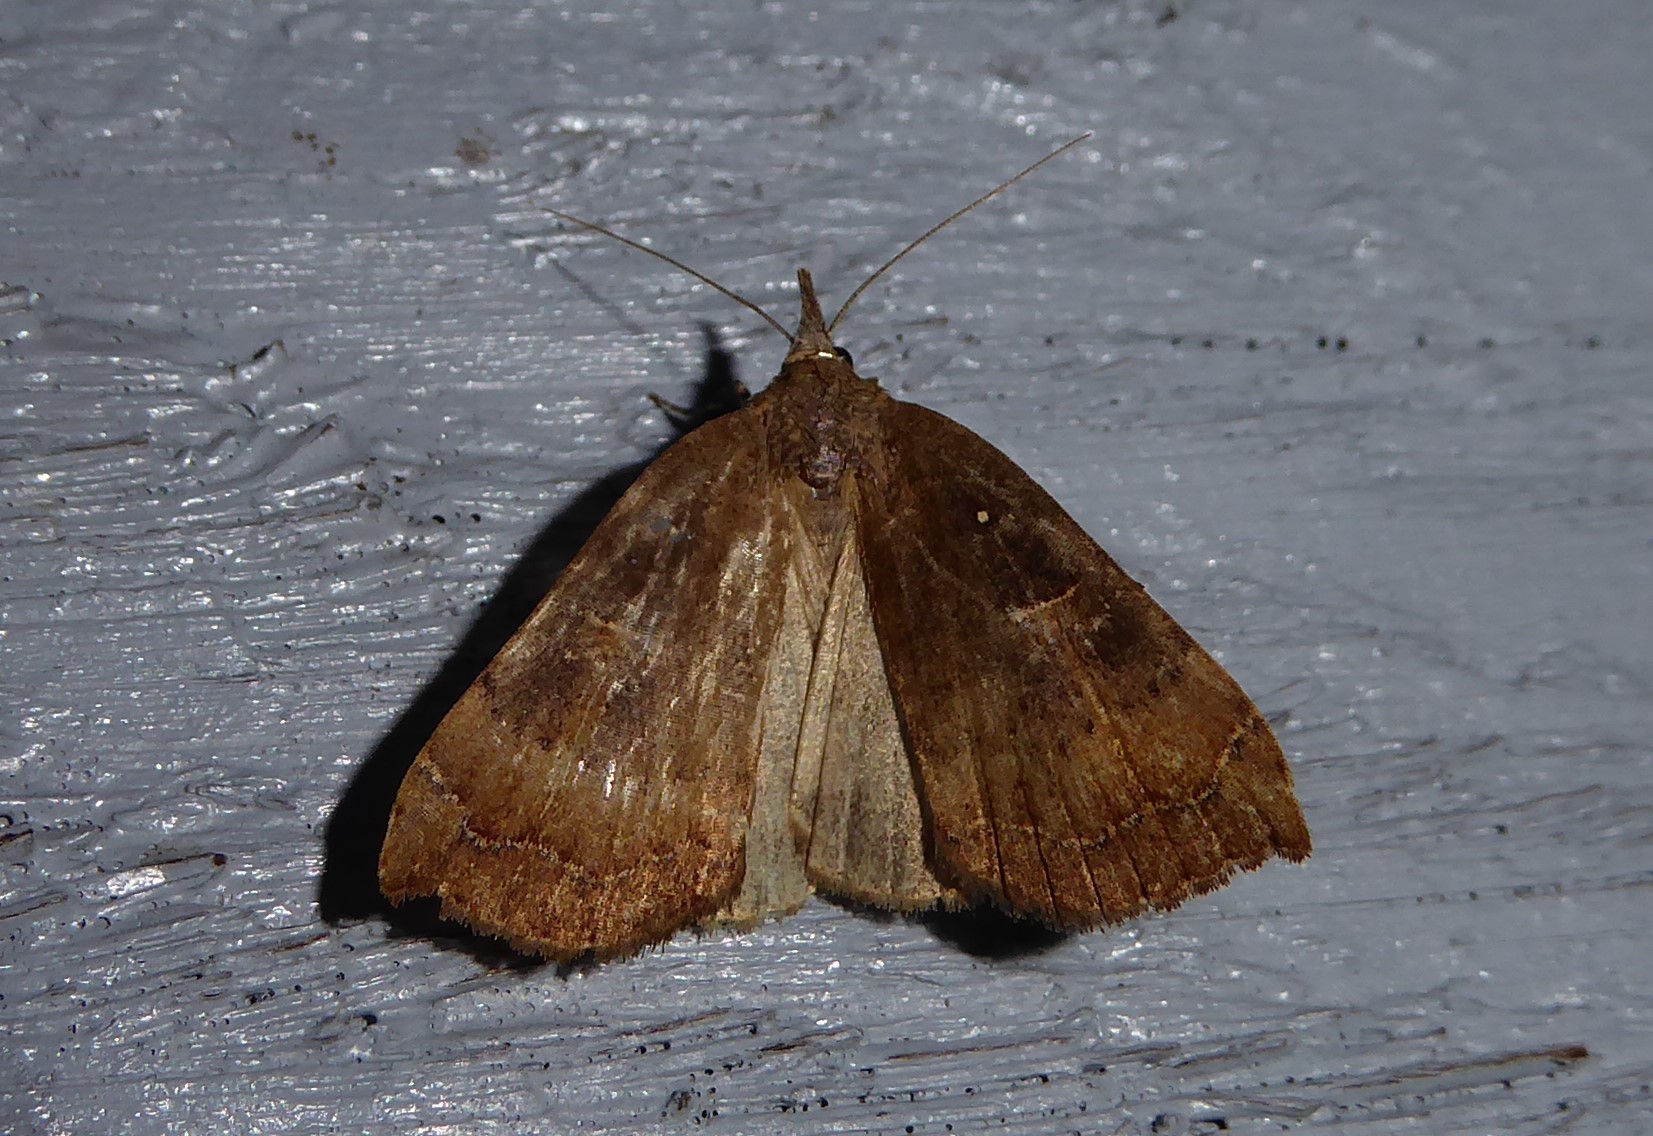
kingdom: Animalia
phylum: Arthropoda
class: Insecta
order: Lepidoptera
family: Erebidae
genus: Rhapsa
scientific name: Rhapsa scotosialis
